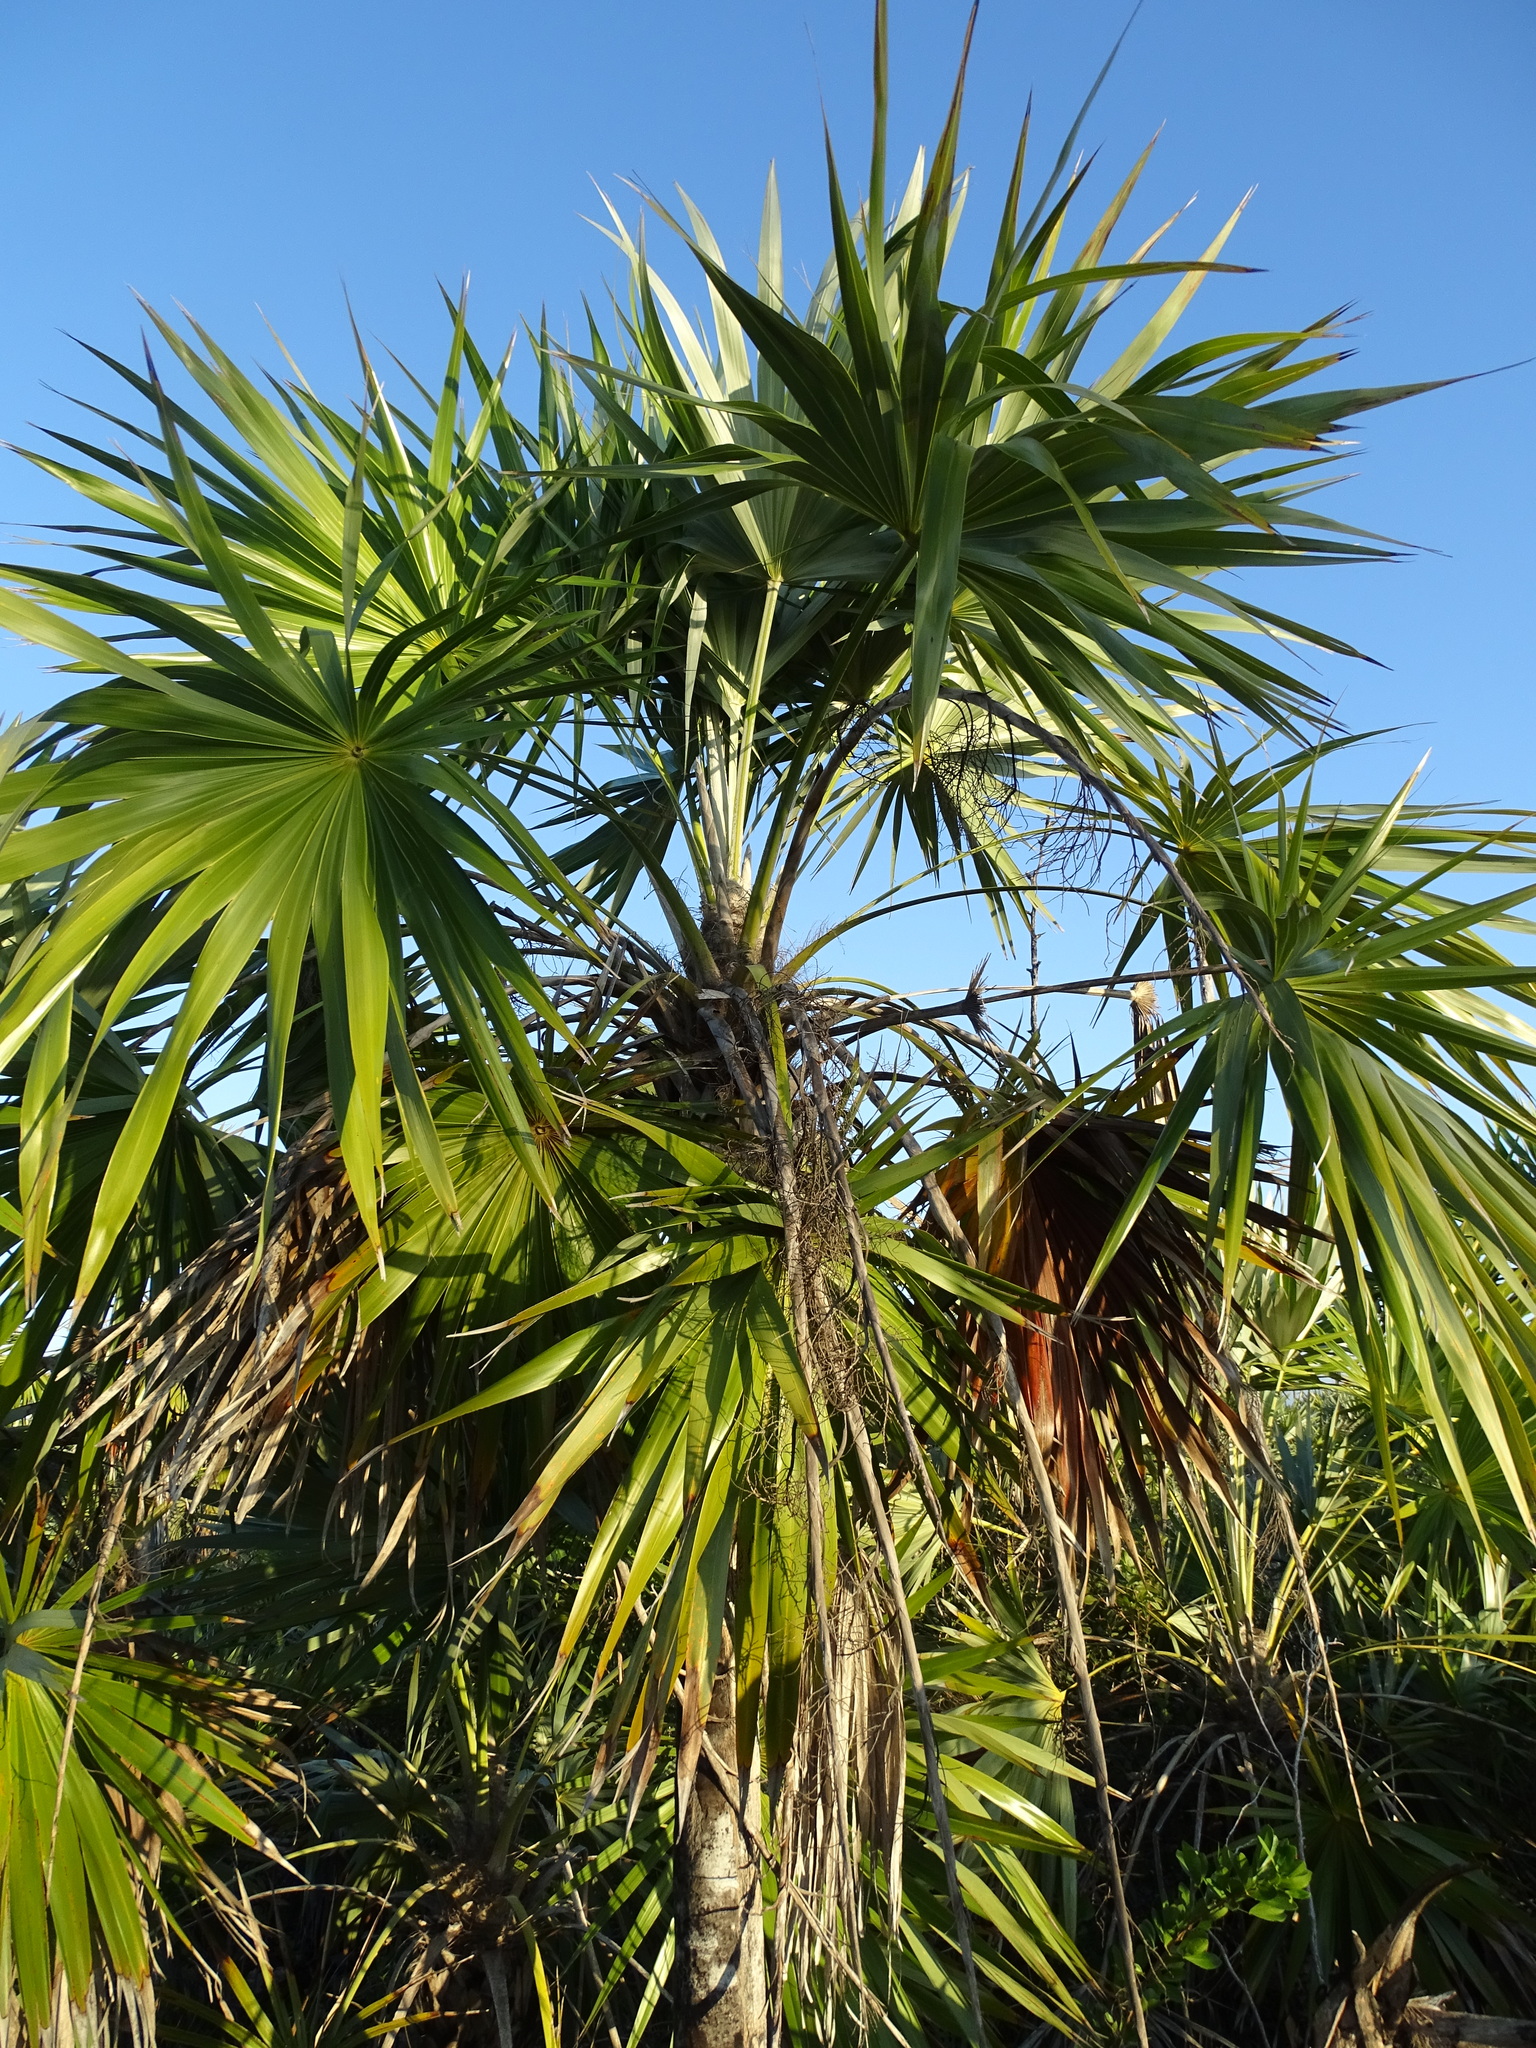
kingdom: Plantae
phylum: Tracheophyta
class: Liliopsida
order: Arecales
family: Arecaceae
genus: Thrinax
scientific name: Thrinax radiata
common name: Florida thatch
